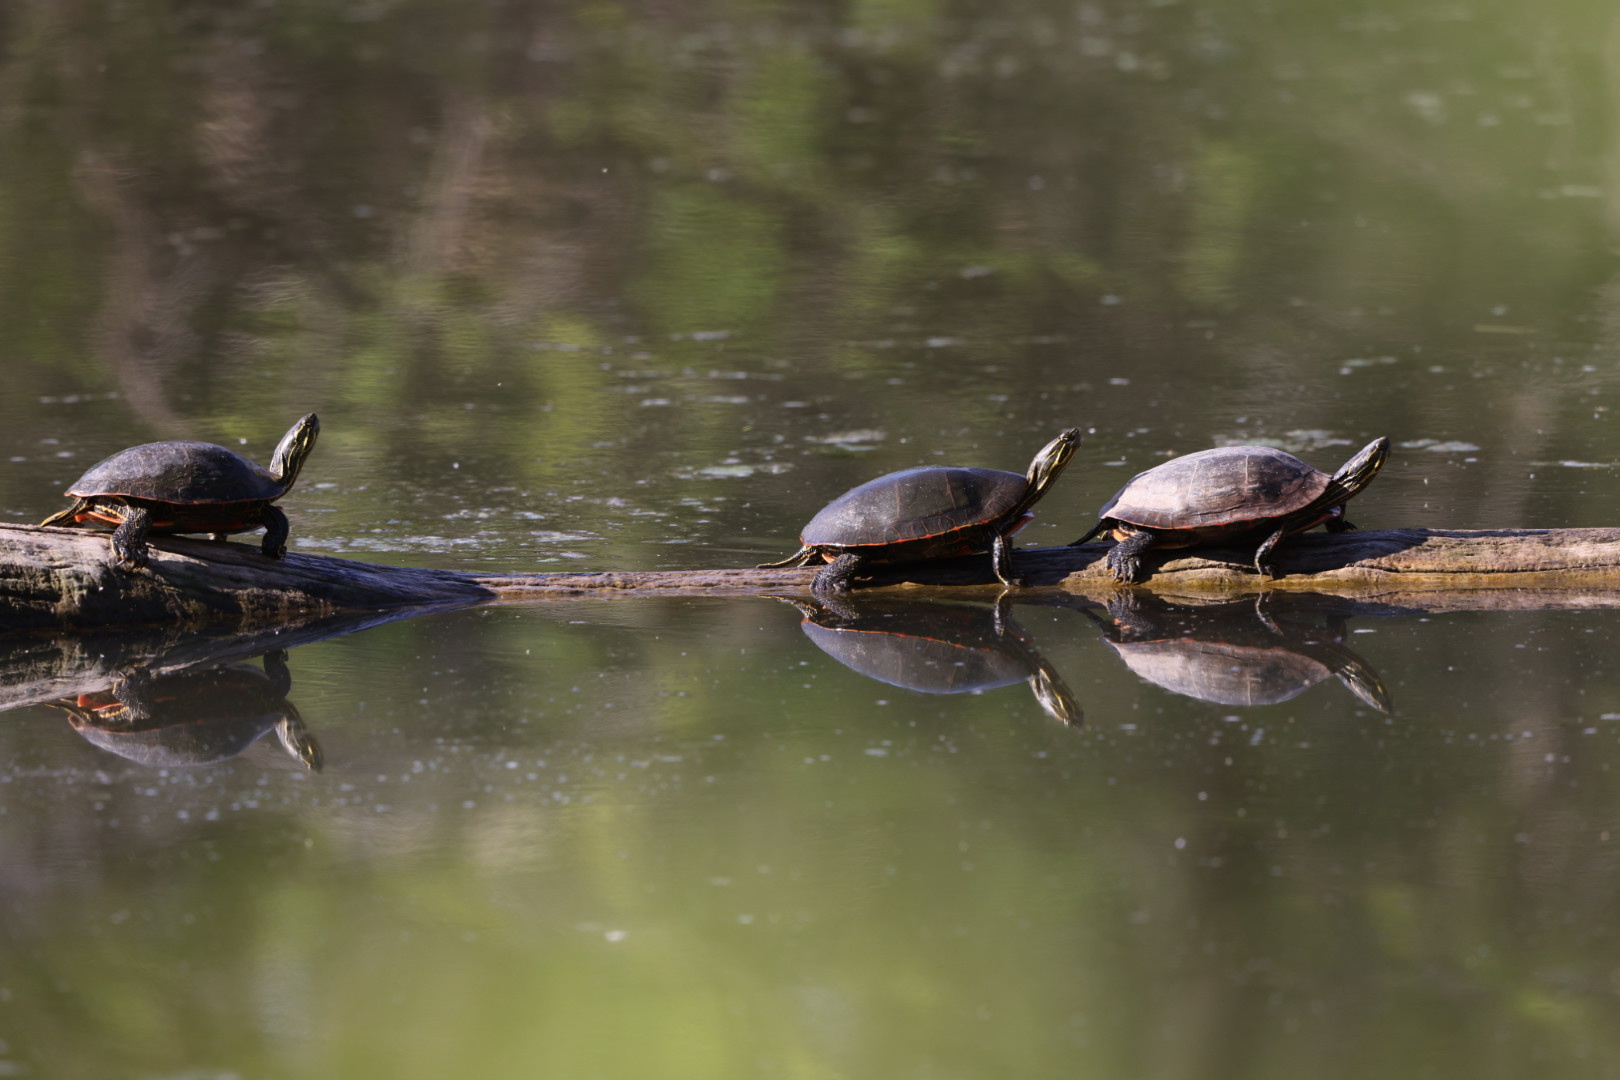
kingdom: Animalia
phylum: Chordata
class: Testudines
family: Emydidae
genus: Chrysemys
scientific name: Chrysemys picta
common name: Painted turtle
